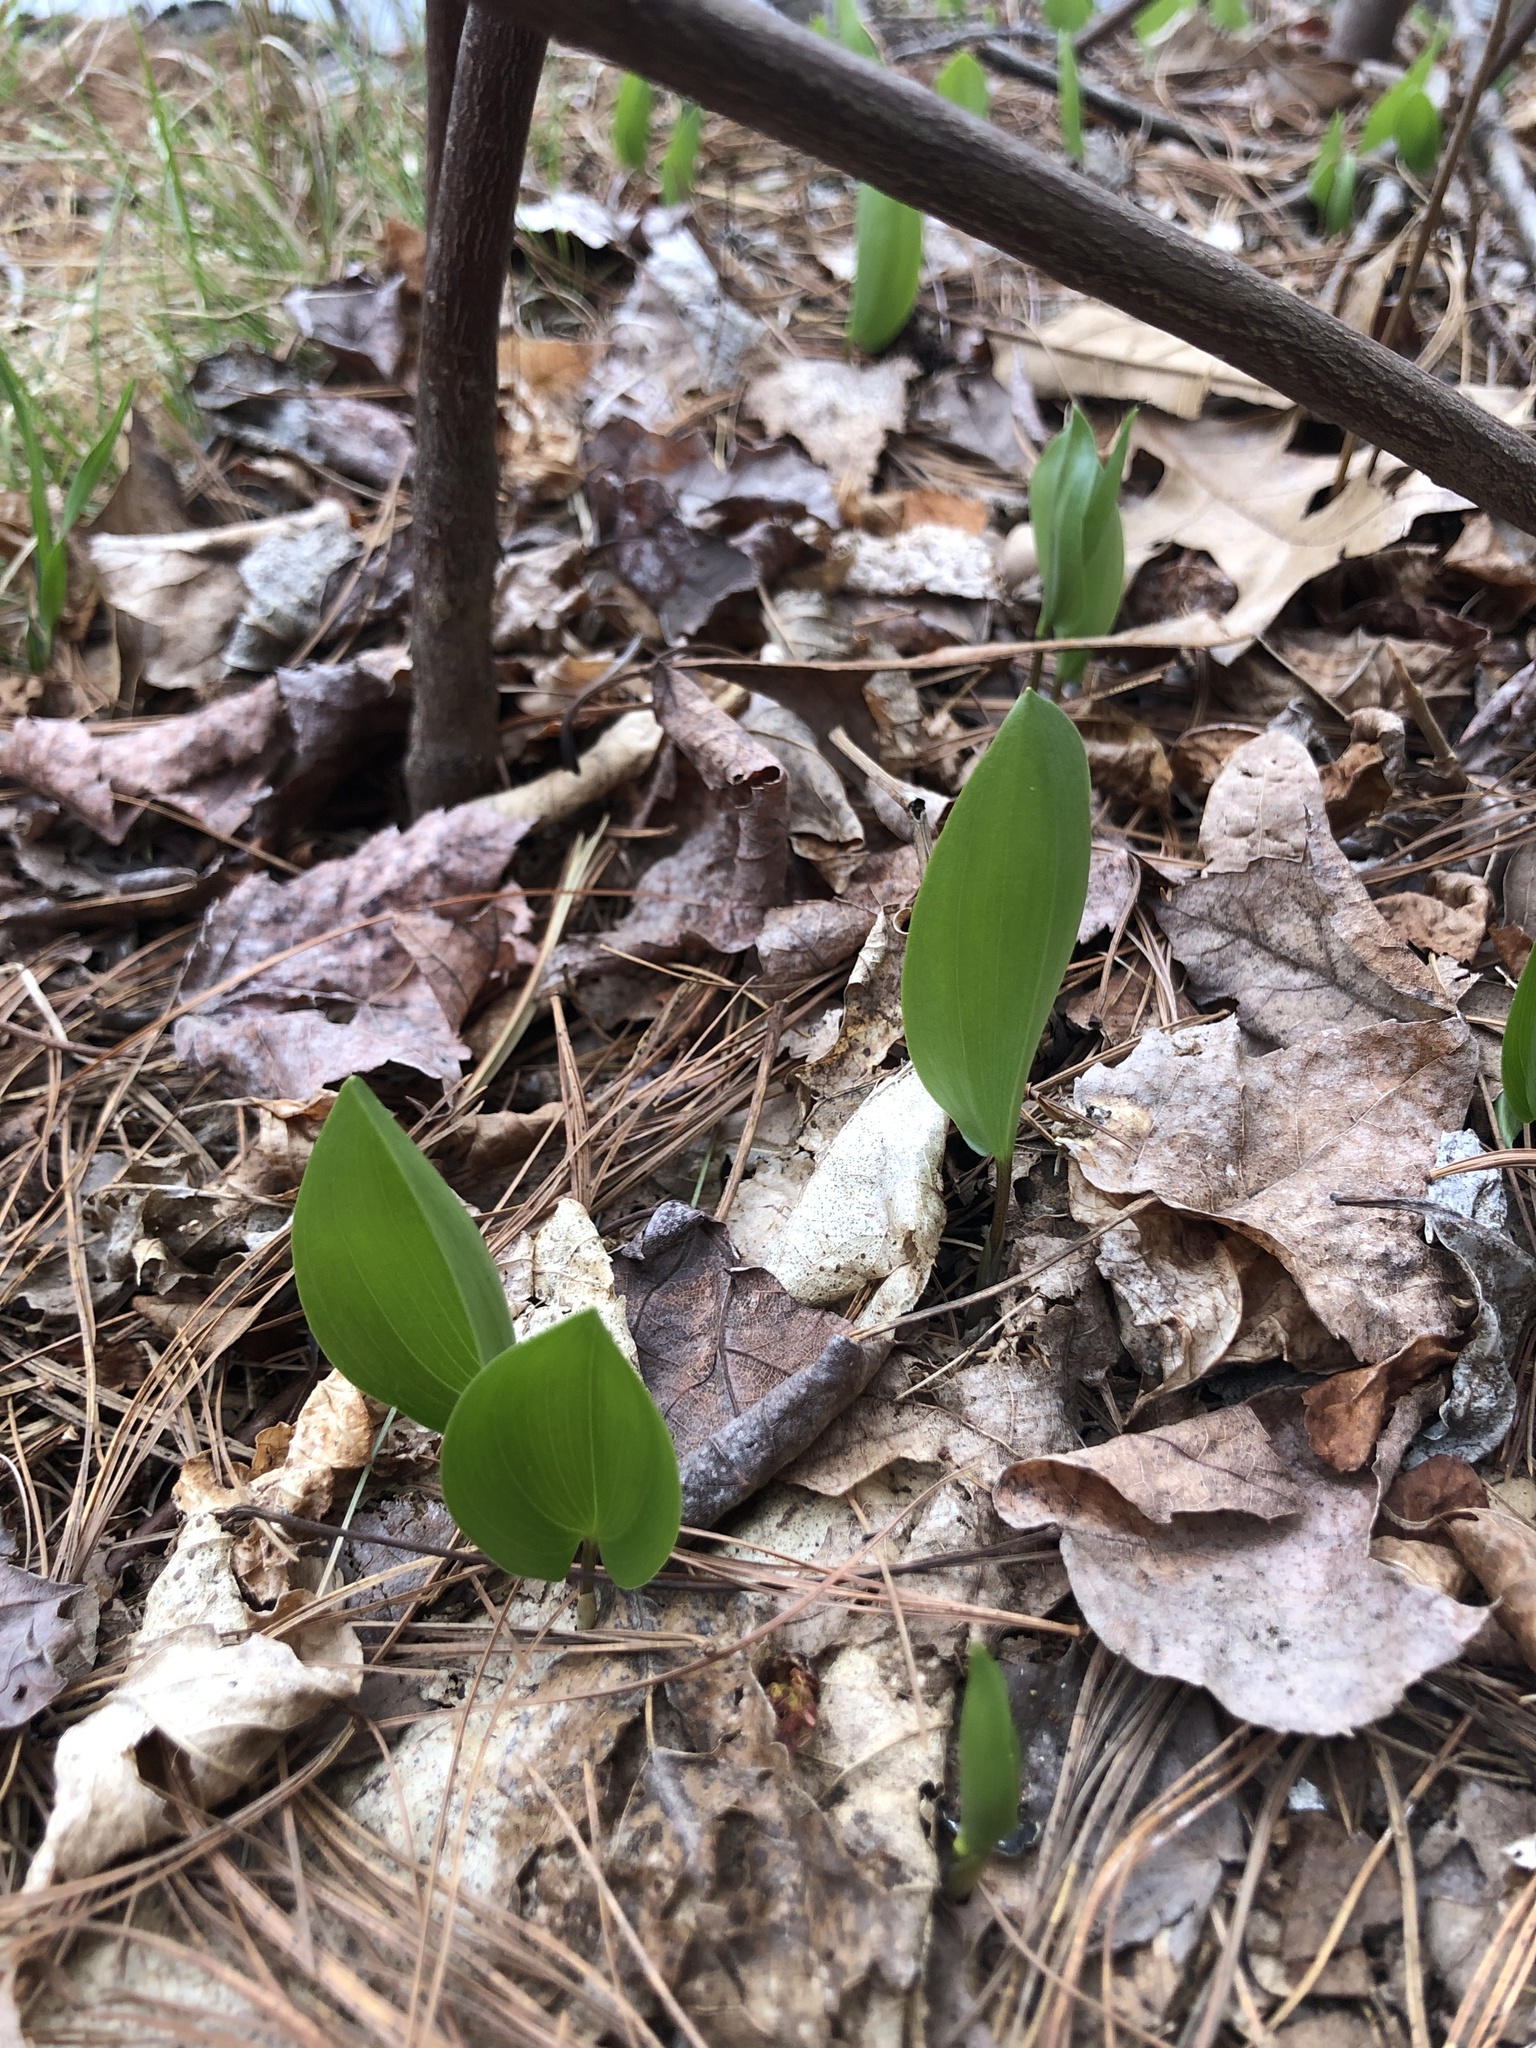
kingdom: Plantae
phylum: Tracheophyta
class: Liliopsida
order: Asparagales
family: Asparagaceae
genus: Maianthemum
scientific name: Maianthemum canadense
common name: False lily-of-the-valley
